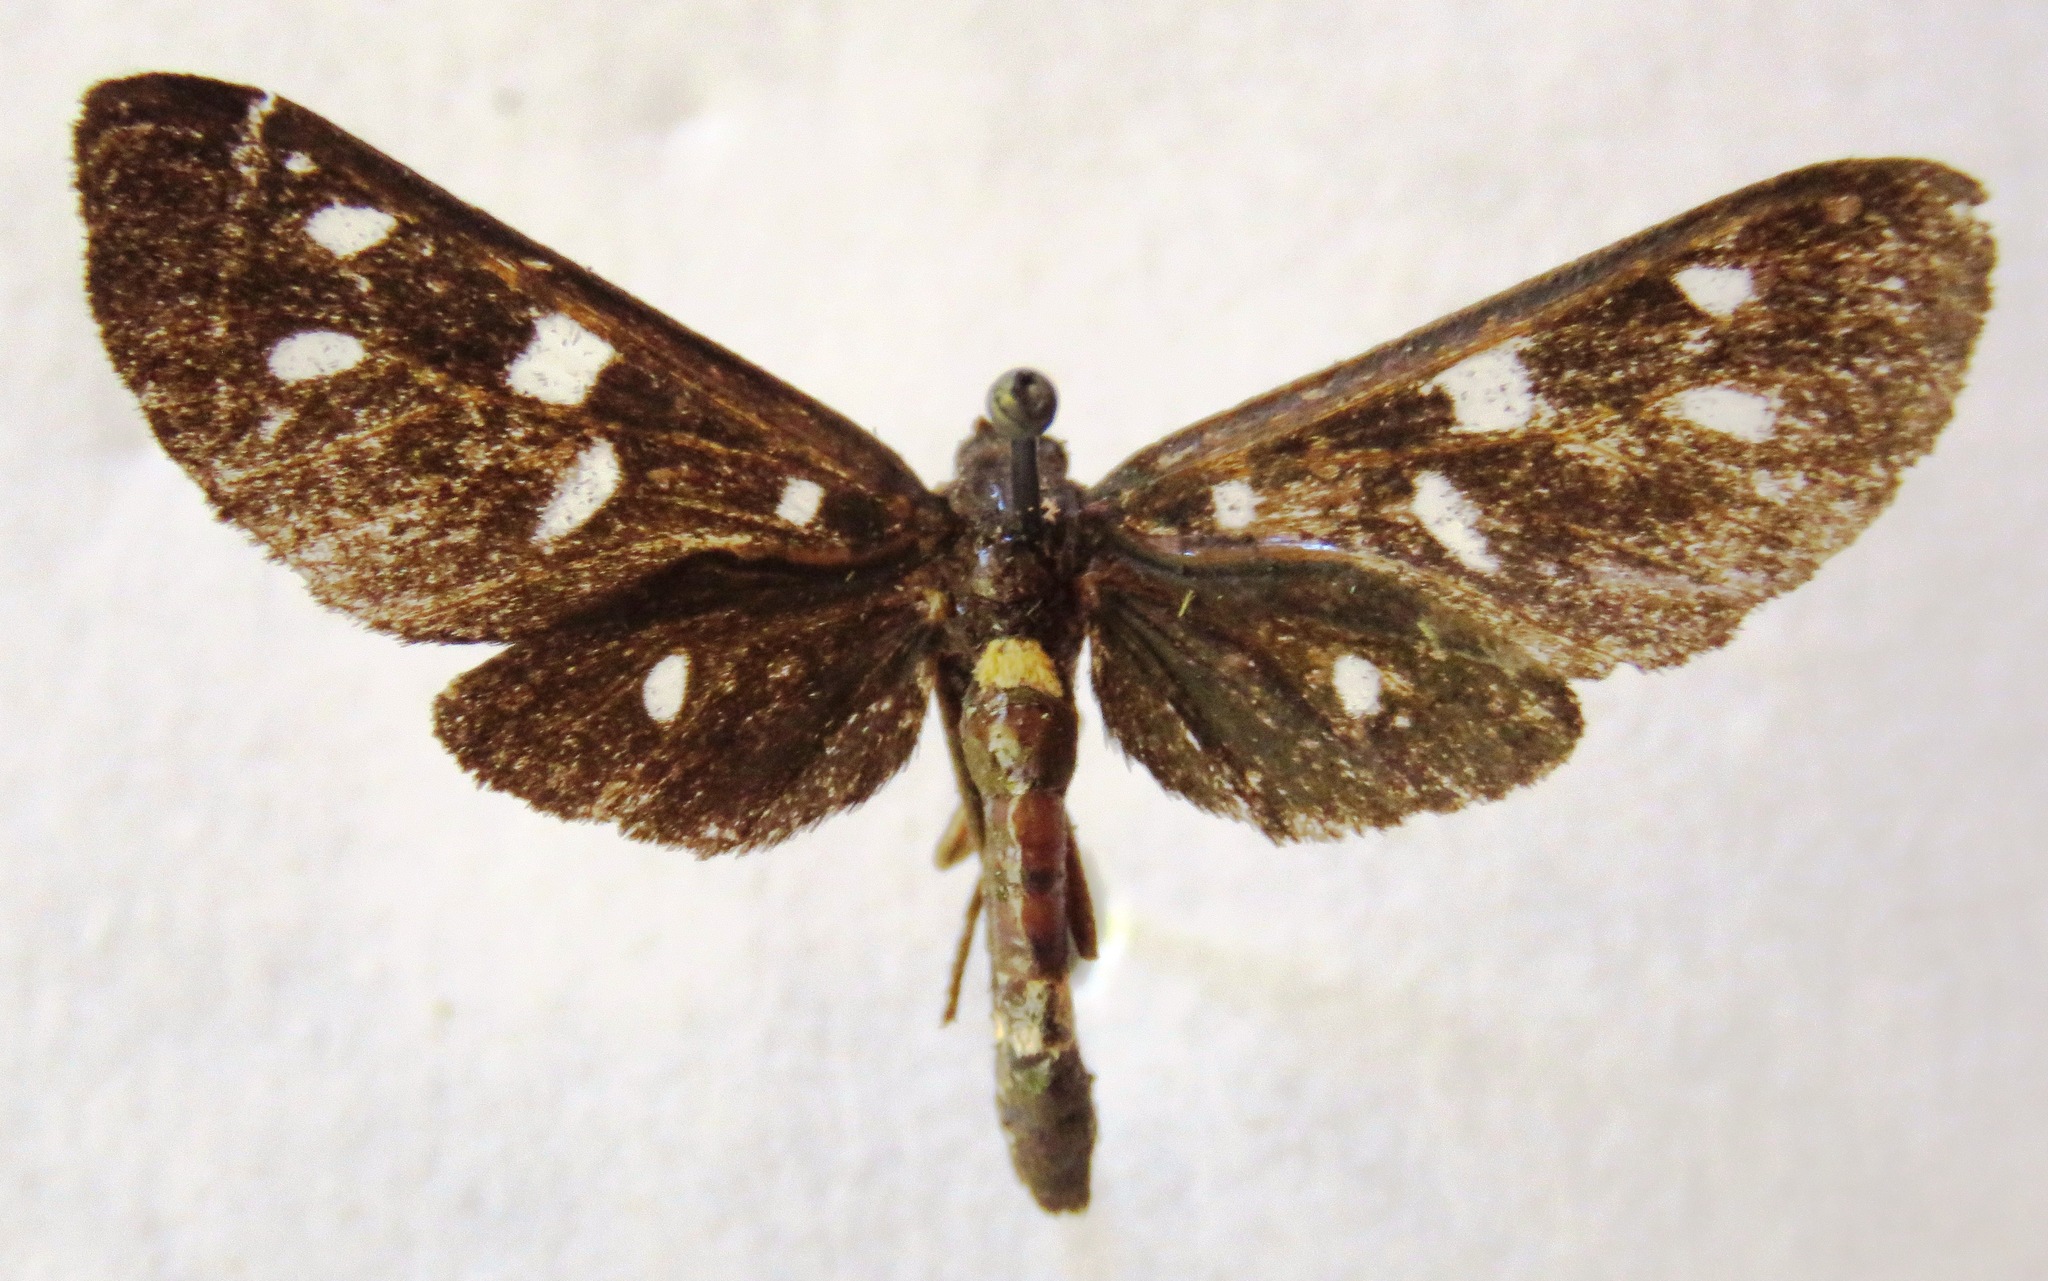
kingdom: Animalia
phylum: Arthropoda
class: Insecta
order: Lepidoptera
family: Erebidae
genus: Amata
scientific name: Amata phegea
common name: Nine-spotted
